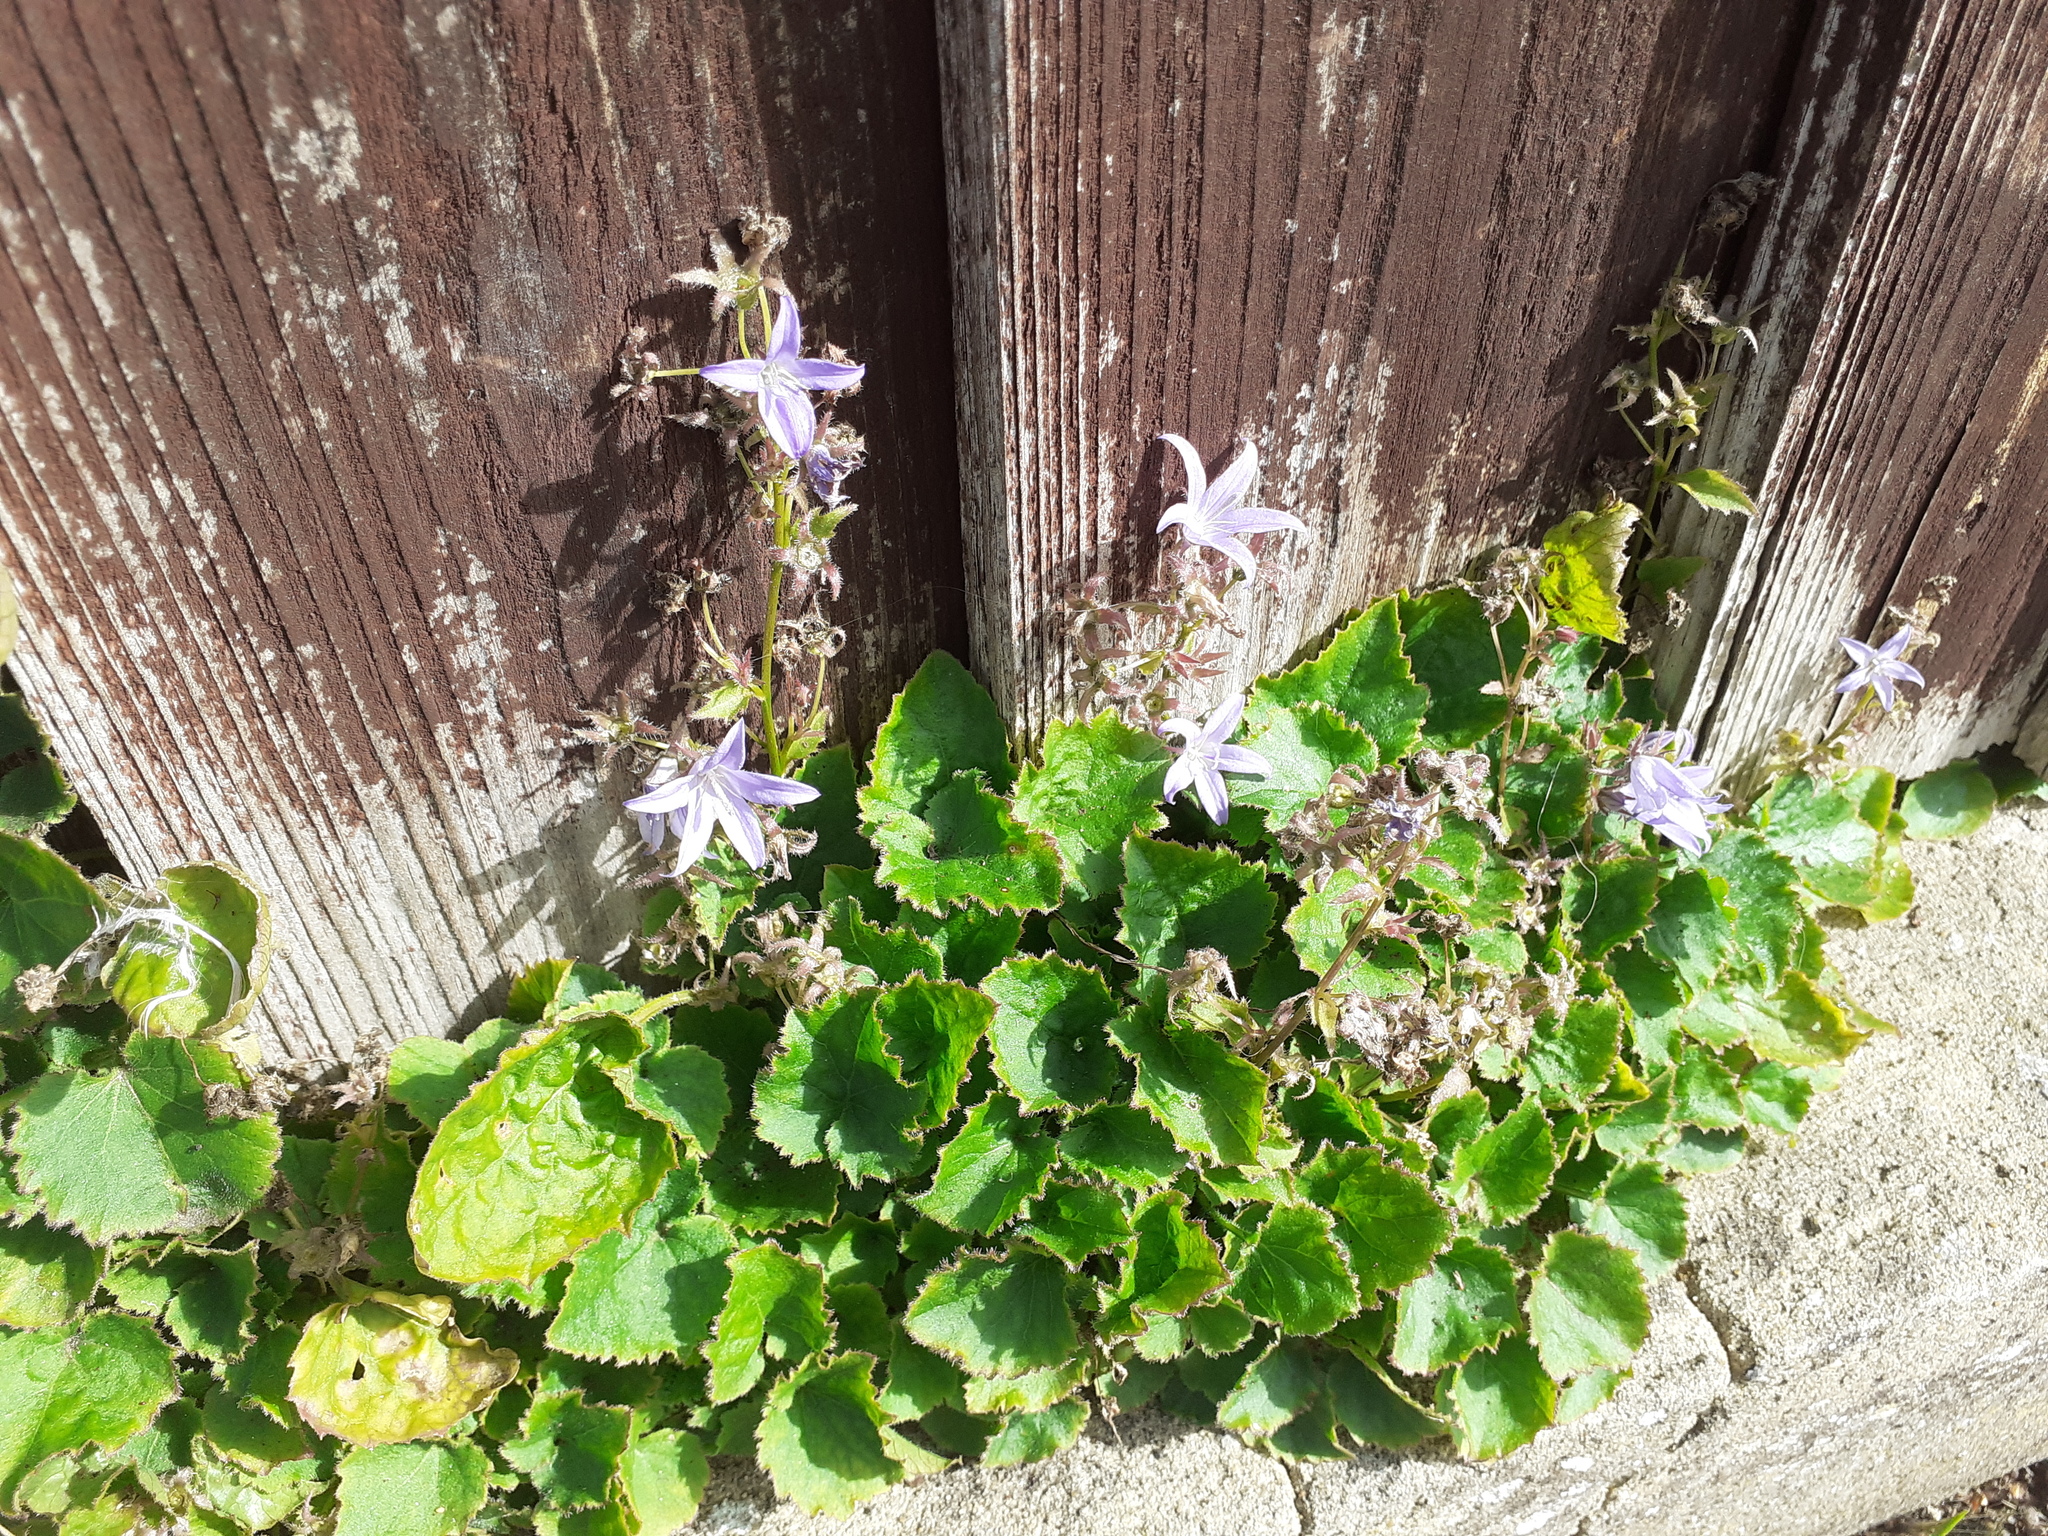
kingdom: Plantae
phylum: Tracheophyta
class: Magnoliopsida
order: Asterales
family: Campanulaceae
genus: Campanula
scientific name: Campanula poscharskyana
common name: Trailing bellflower
